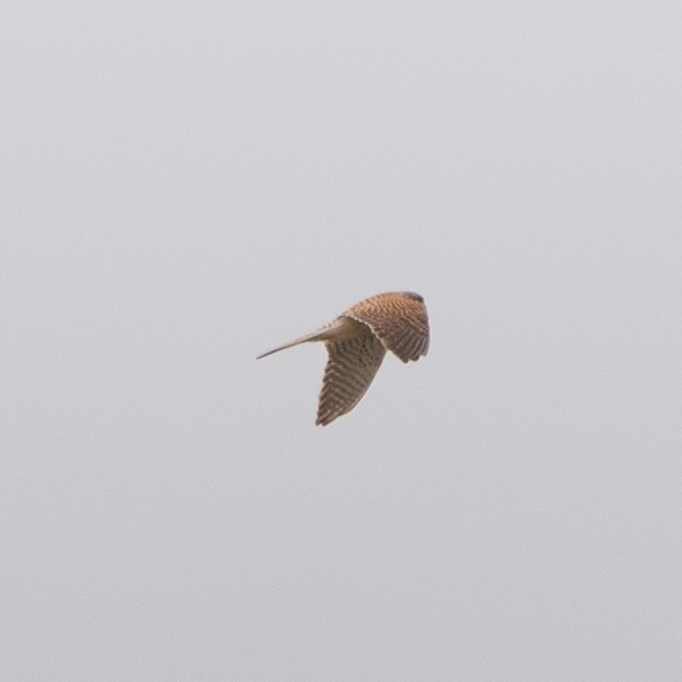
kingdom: Animalia
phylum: Chordata
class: Aves
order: Falconiformes
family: Falconidae
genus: Falco
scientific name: Falco tinnunculus
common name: Common kestrel
